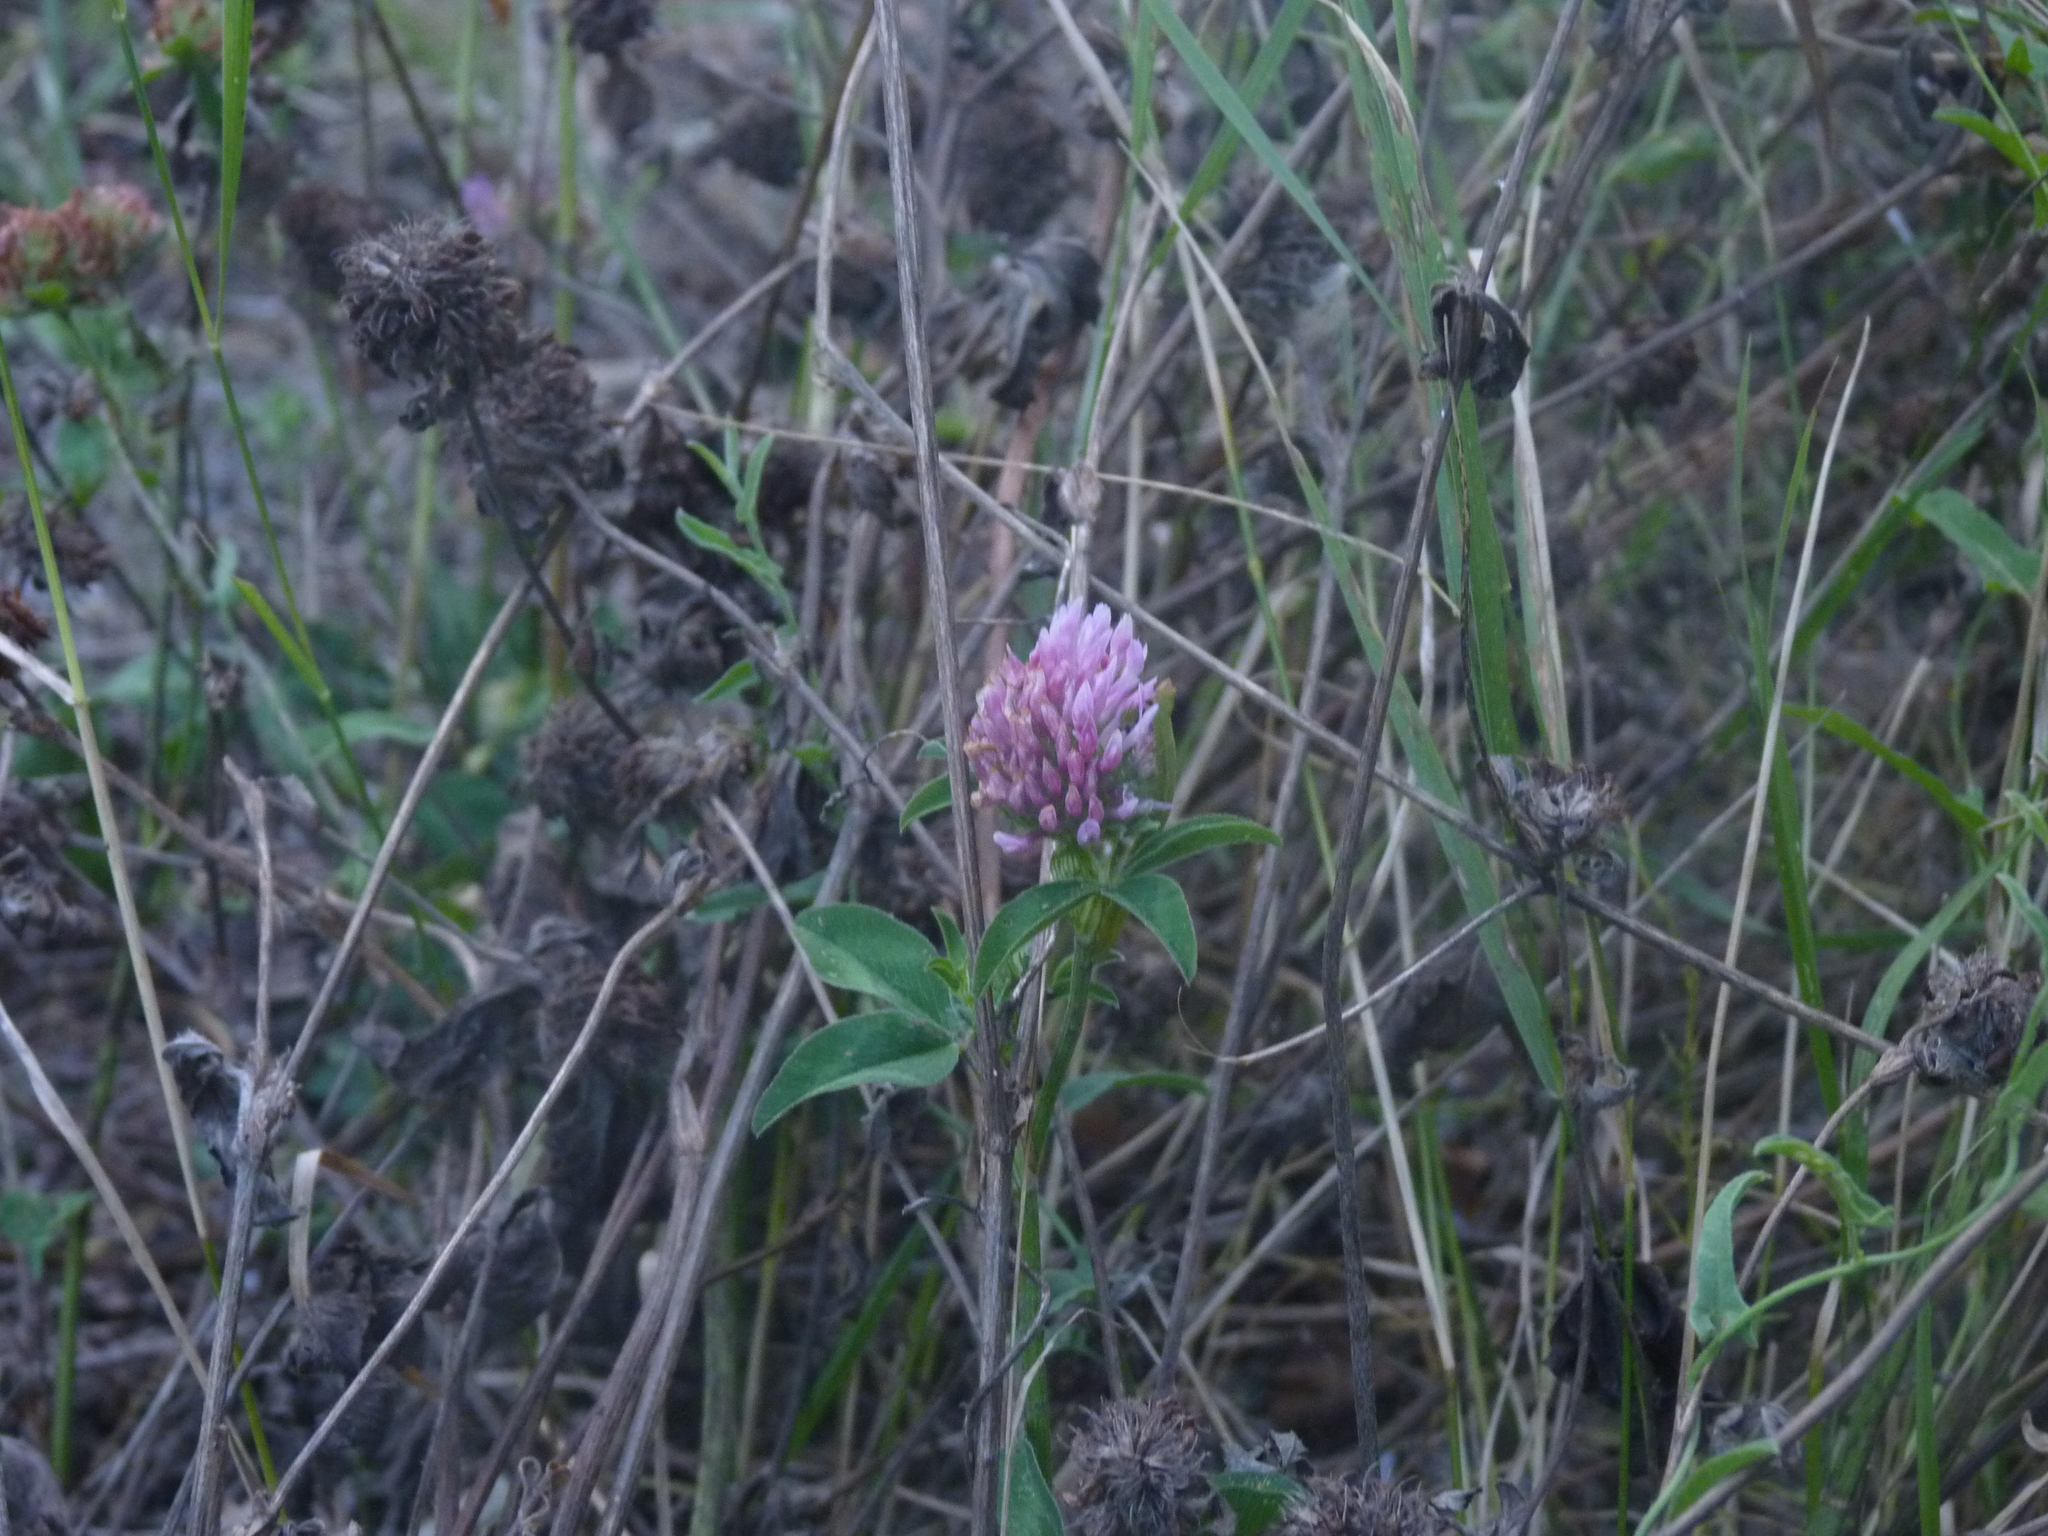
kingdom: Plantae
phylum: Tracheophyta
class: Magnoliopsida
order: Fabales
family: Fabaceae
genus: Trifolium
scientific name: Trifolium pratense
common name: Red clover
